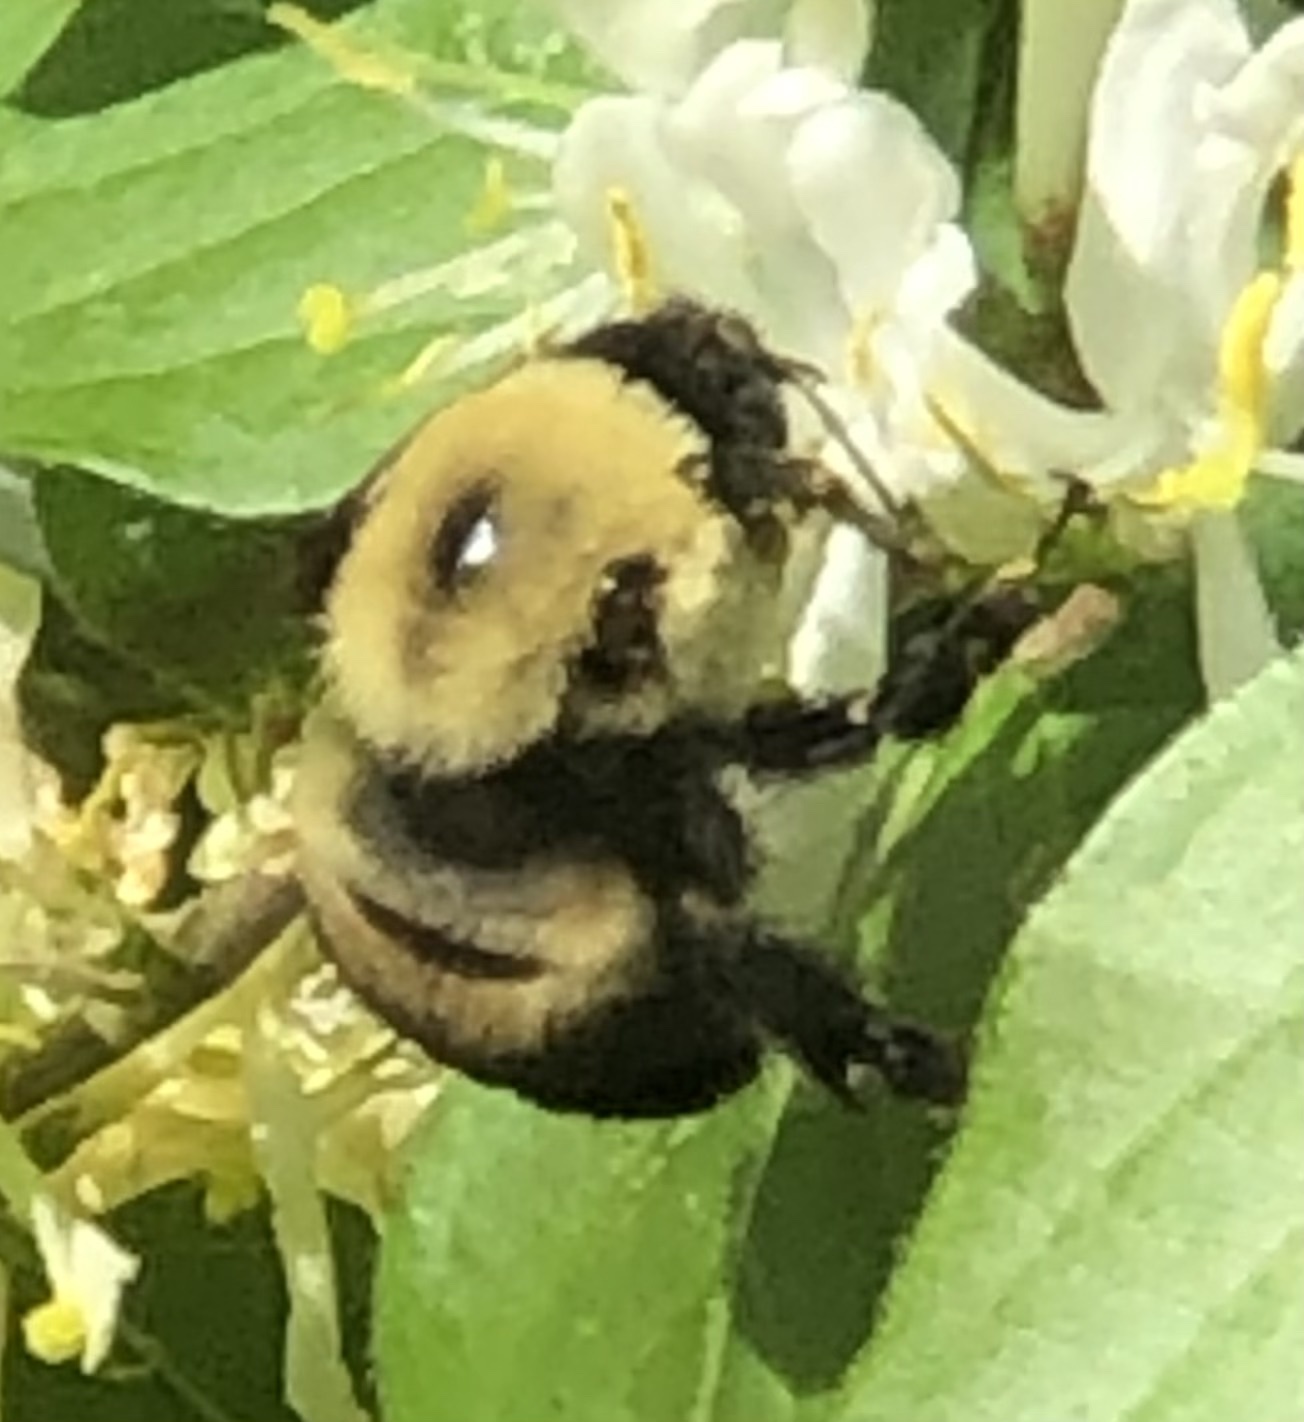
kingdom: Animalia
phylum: Arthropoda
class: Insecta
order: Hymenoptera
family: Apidae
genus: Bombus
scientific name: Bombus griseocollis
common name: Brown-belted bumble bee
